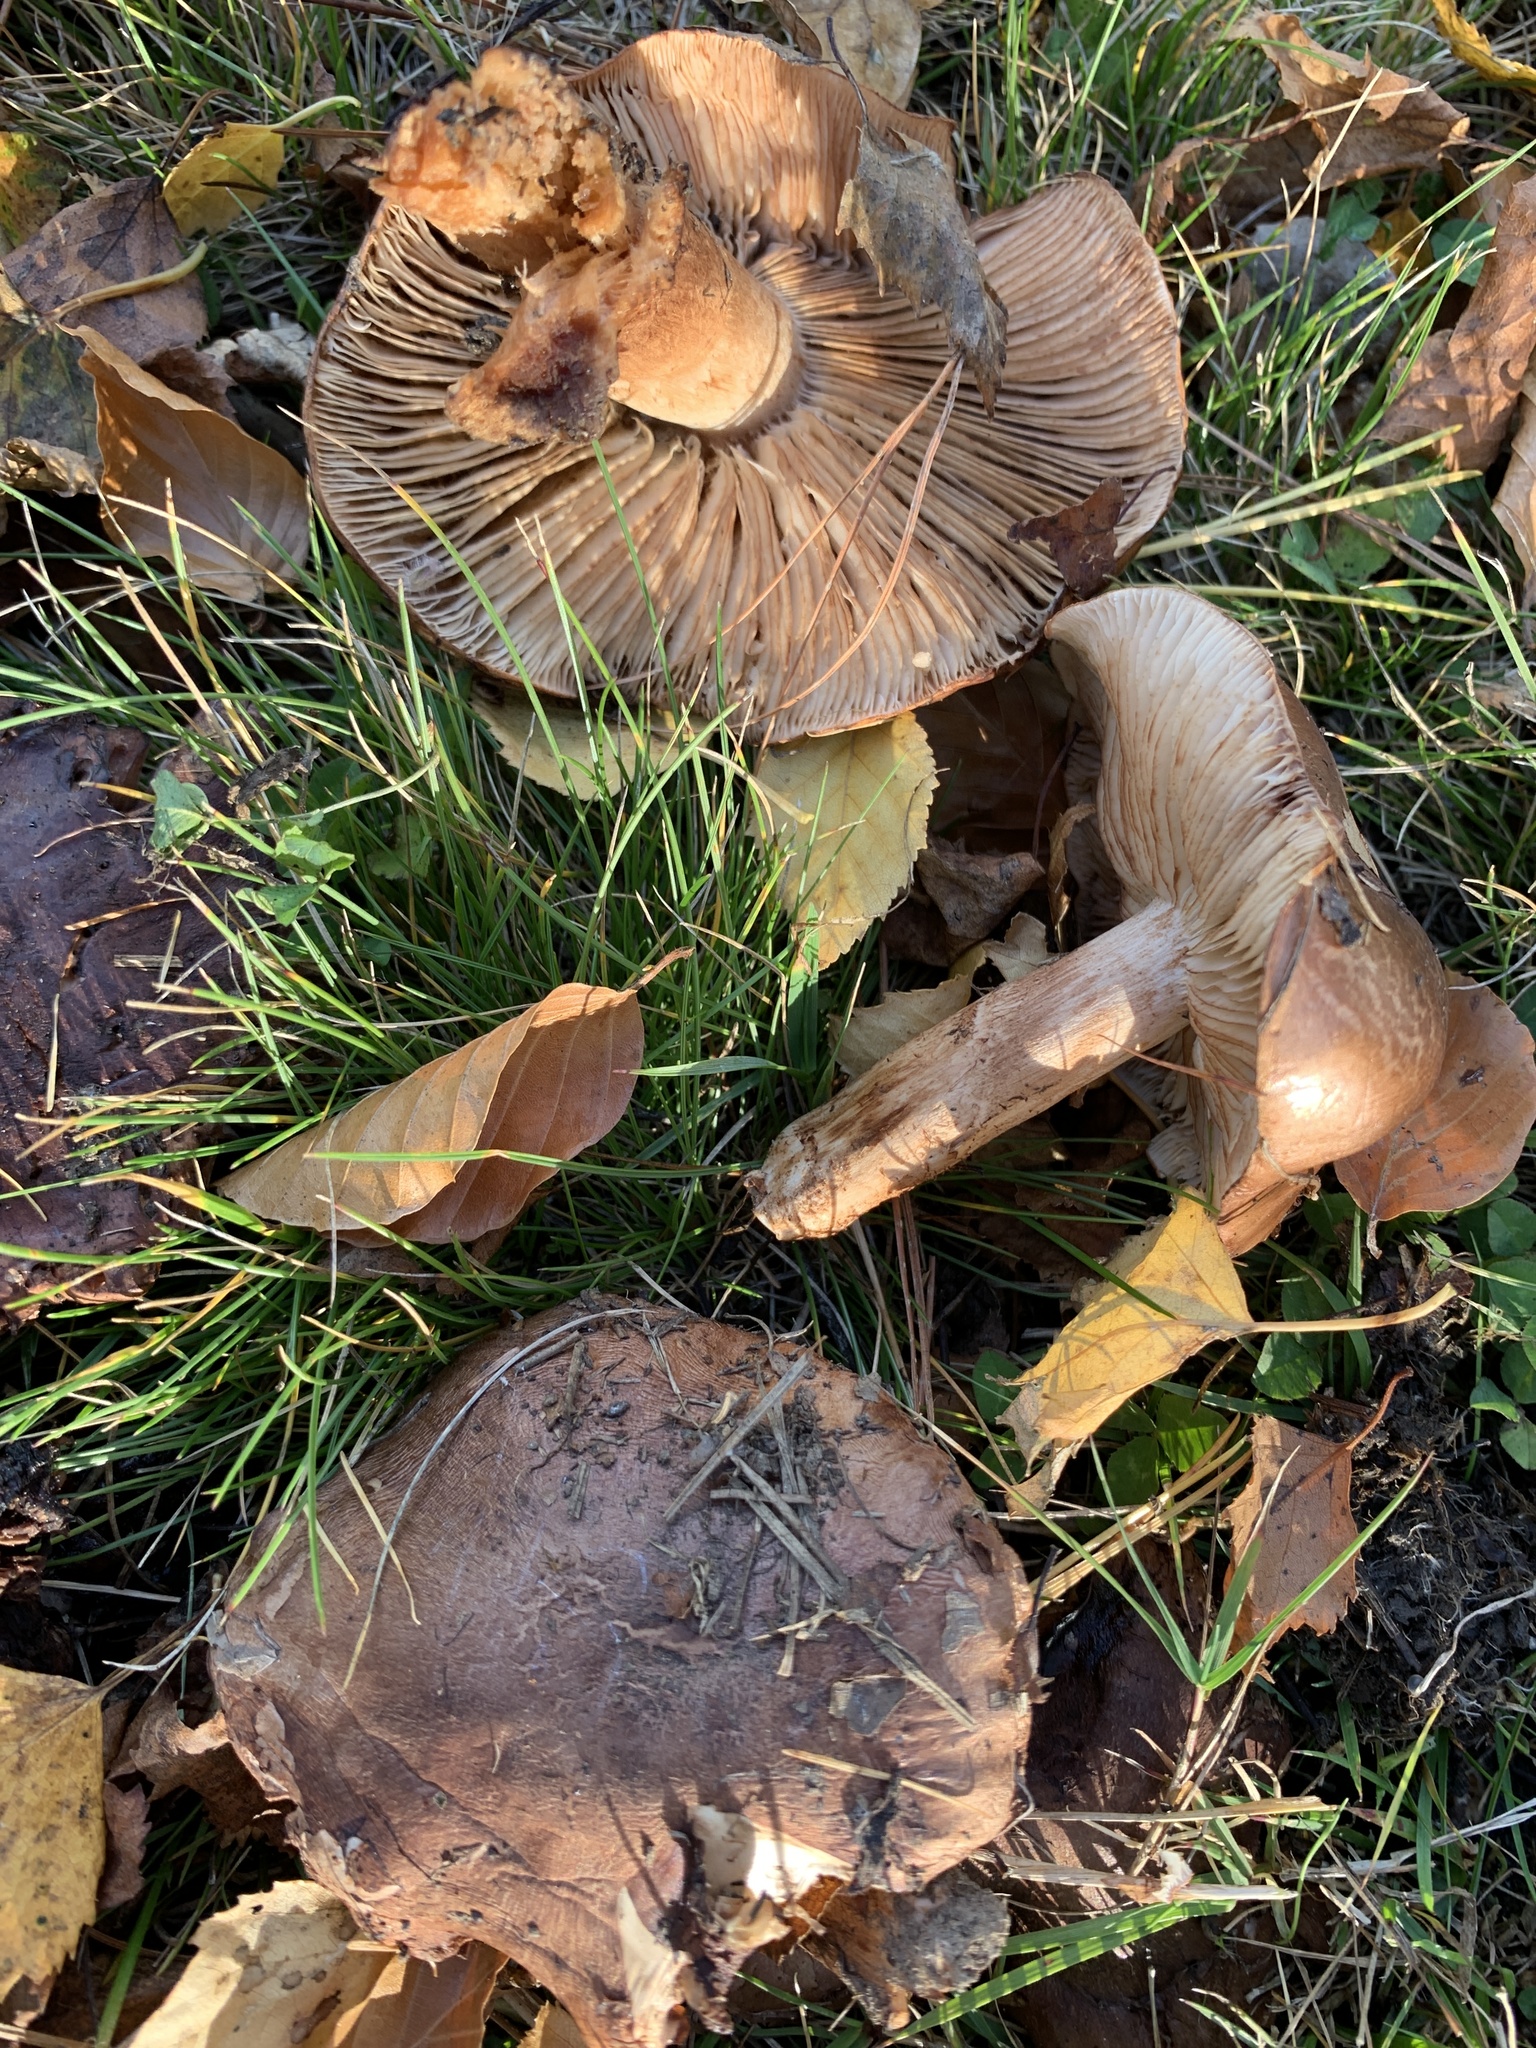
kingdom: Fungi
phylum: Basidiomycota
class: Agaricomycetes
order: Agaricales
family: Tricholomataceae
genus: Tricholoma
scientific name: Tricholoma batschii
